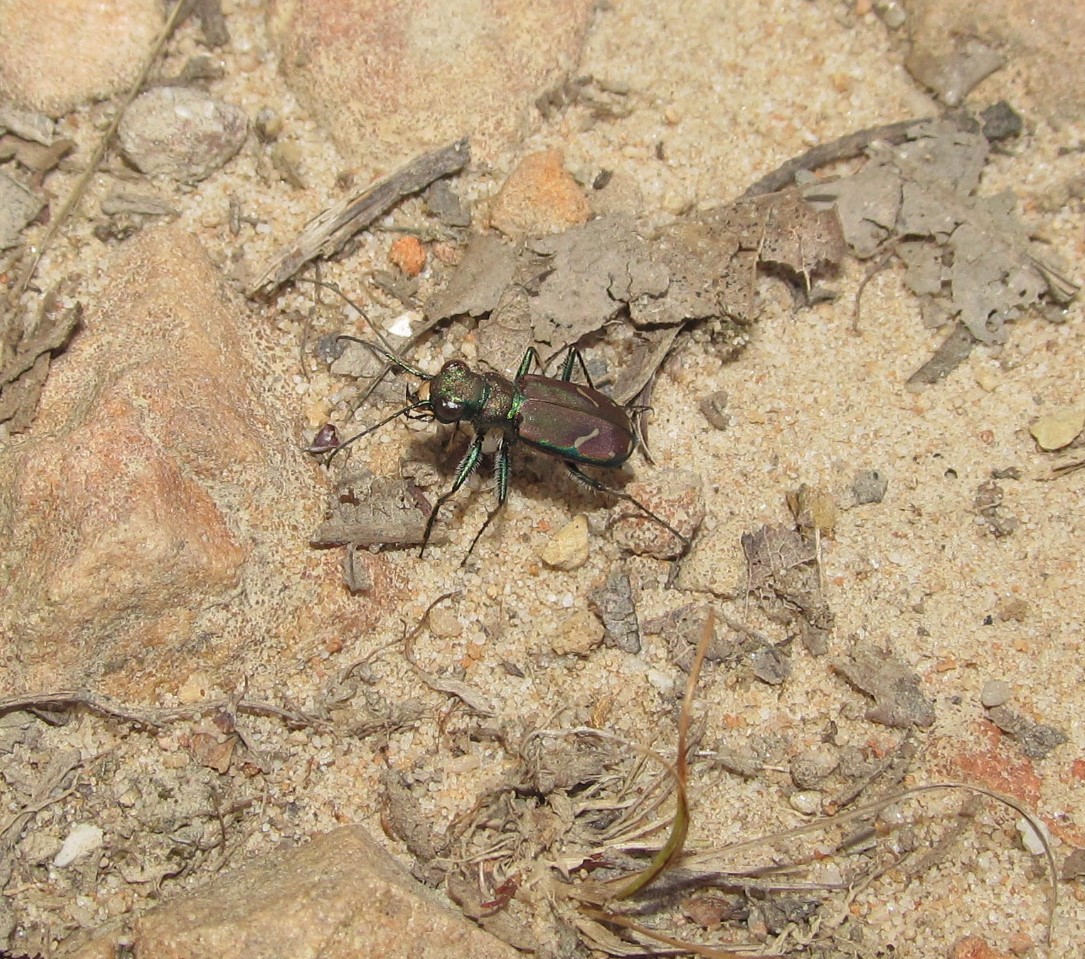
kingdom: Animalia
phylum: Arthropoda
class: Insecta
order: Coleoptera
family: Carabidae
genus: Cicindela
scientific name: Cicindela purpurea
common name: Cow path tiger beetle
